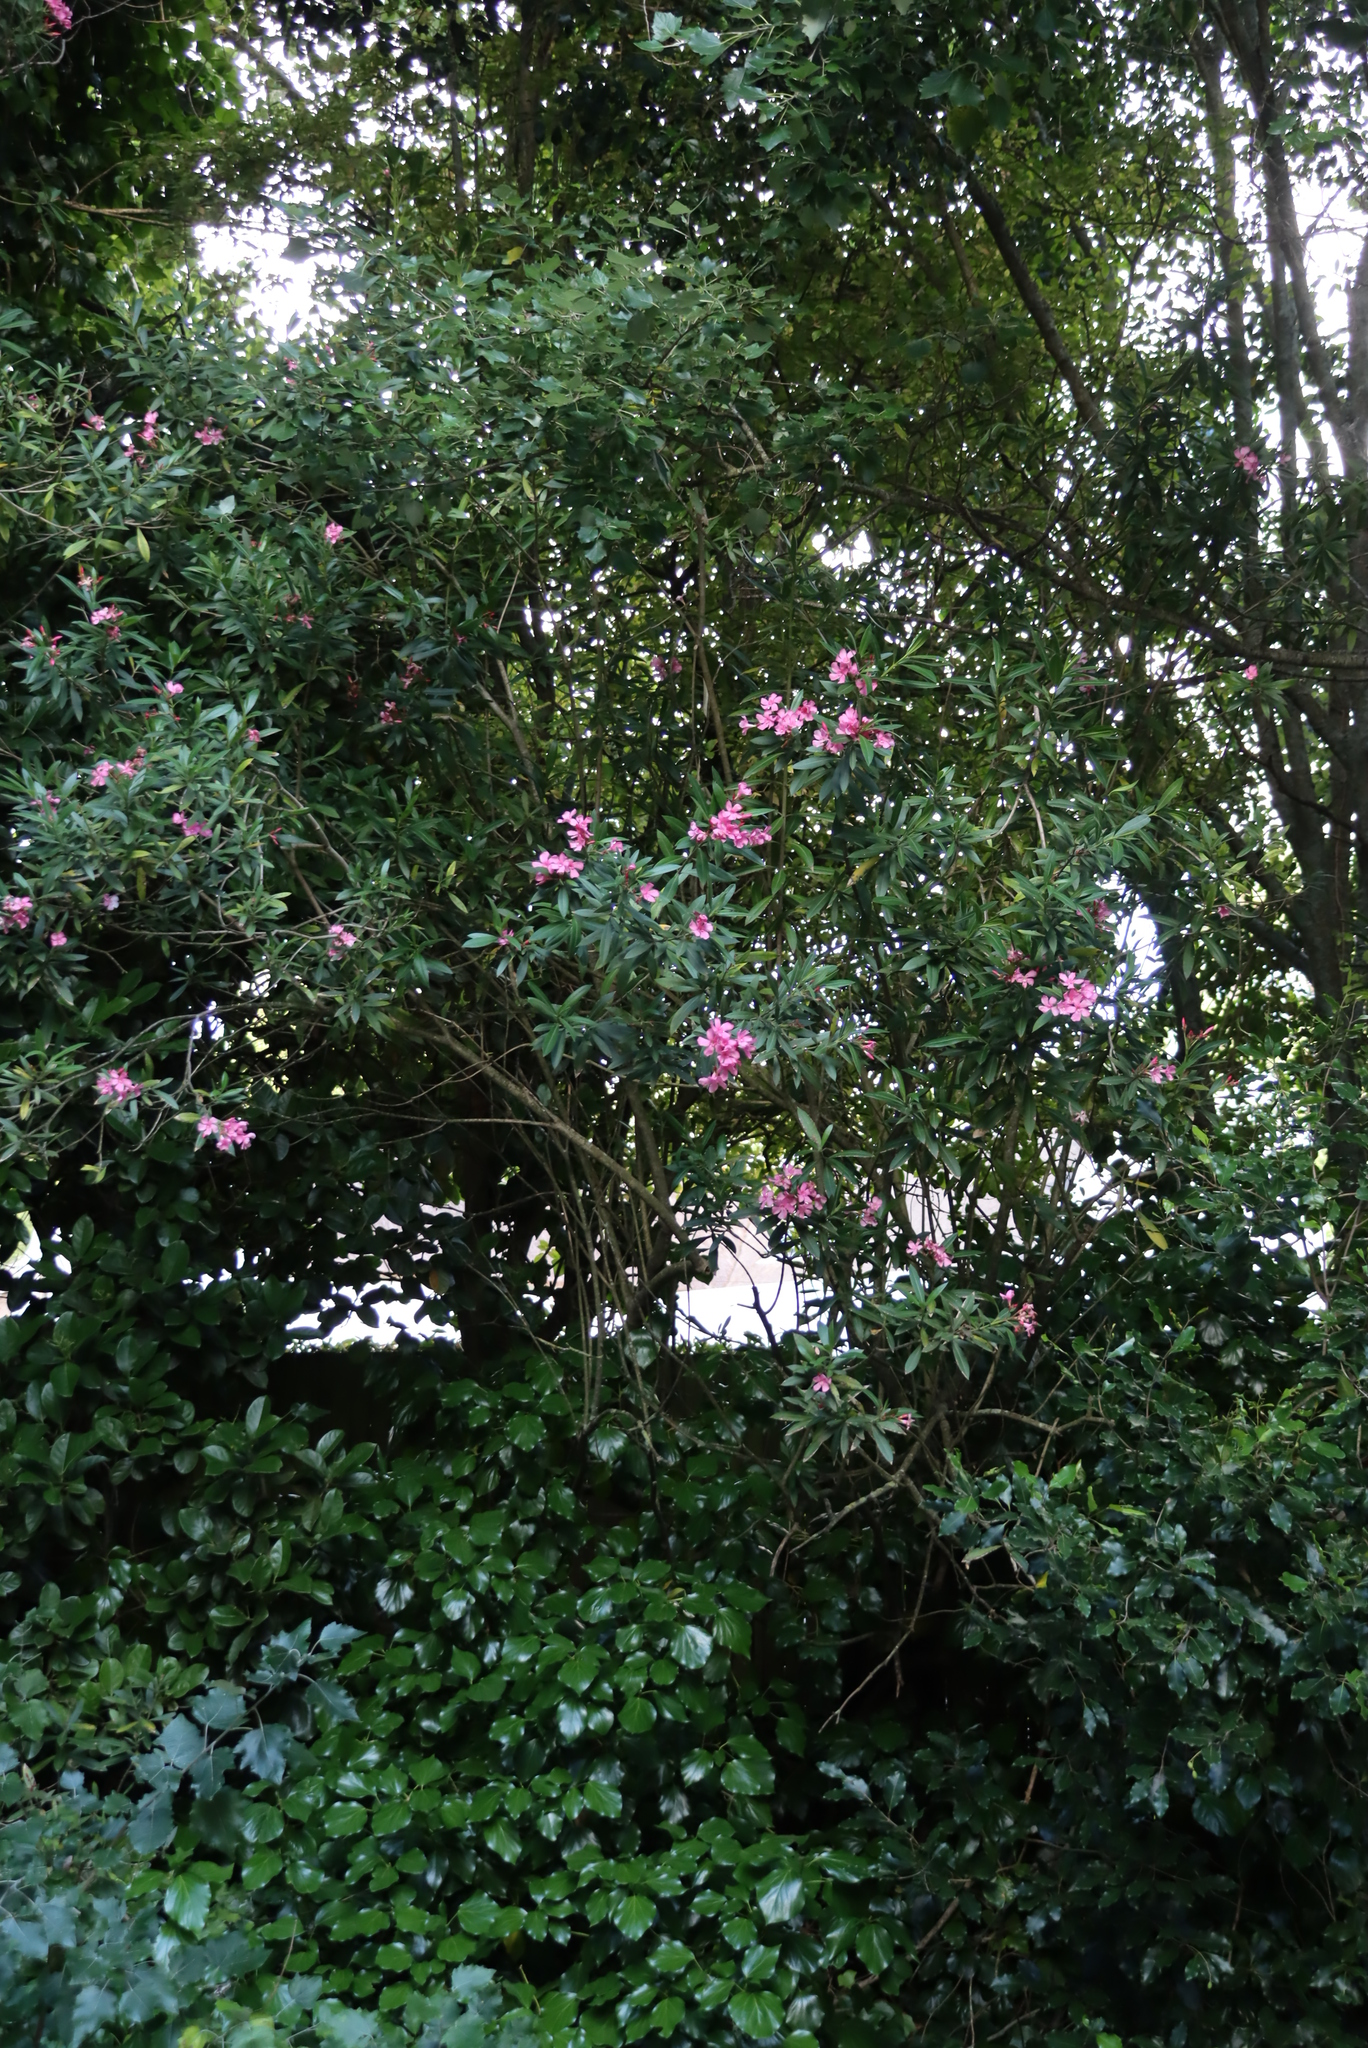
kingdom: Plantae
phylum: Tracheophyta
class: Magnoliopsida
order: Gentianales
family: Apocynaceae
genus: Nerium
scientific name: Nerium oleander
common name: Oleander
